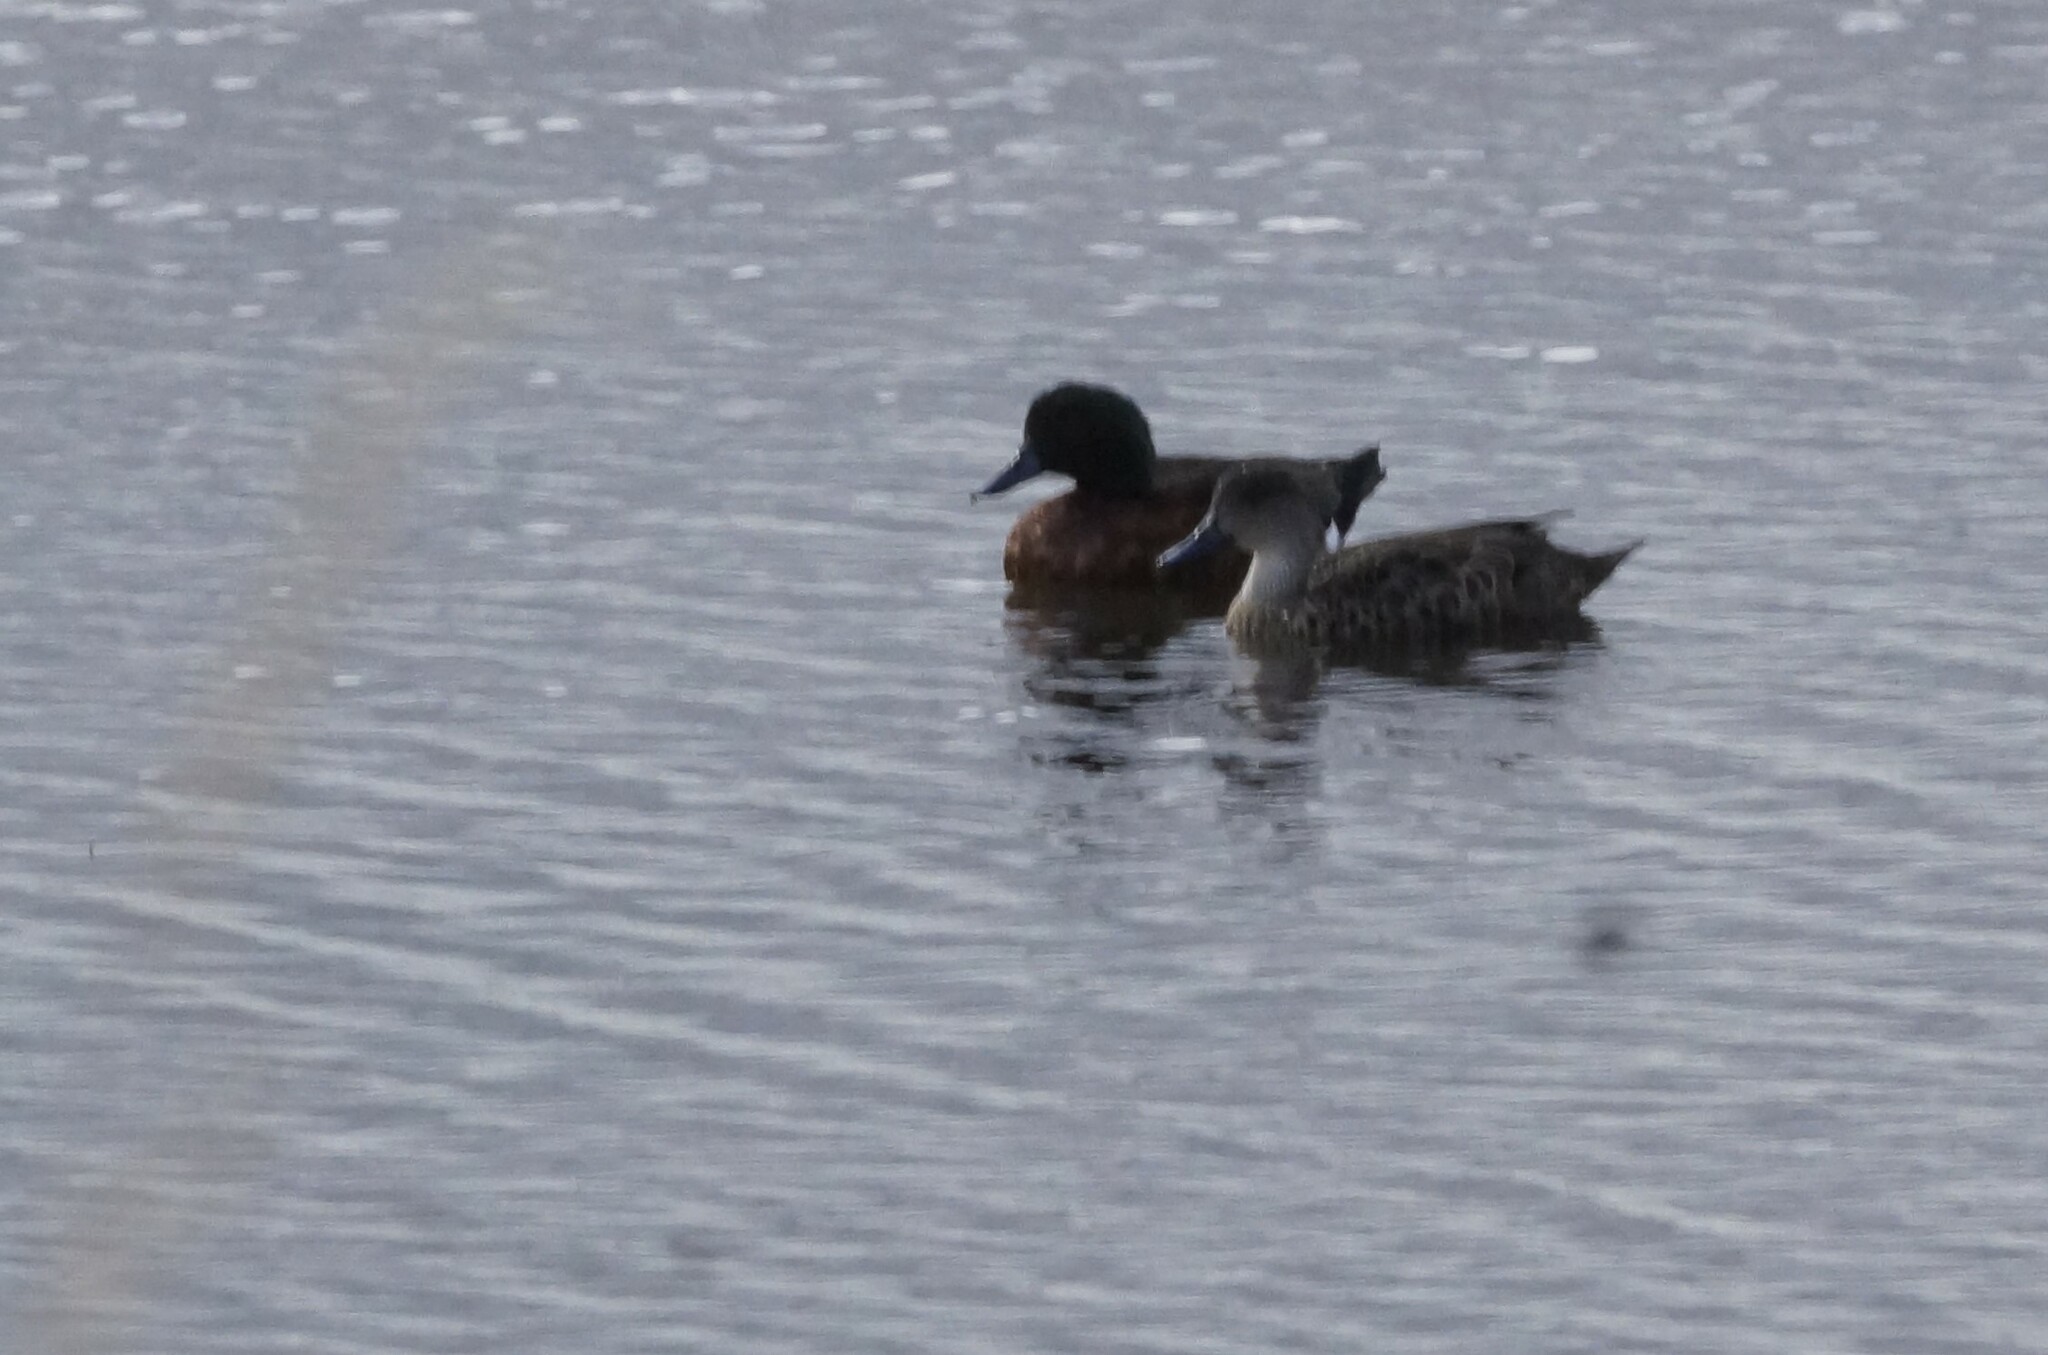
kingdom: Animalia
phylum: Chordata
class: Aves
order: Anseriformes
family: Anatidae
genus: Anas
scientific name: Anas castanea
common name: Chestnut teal
